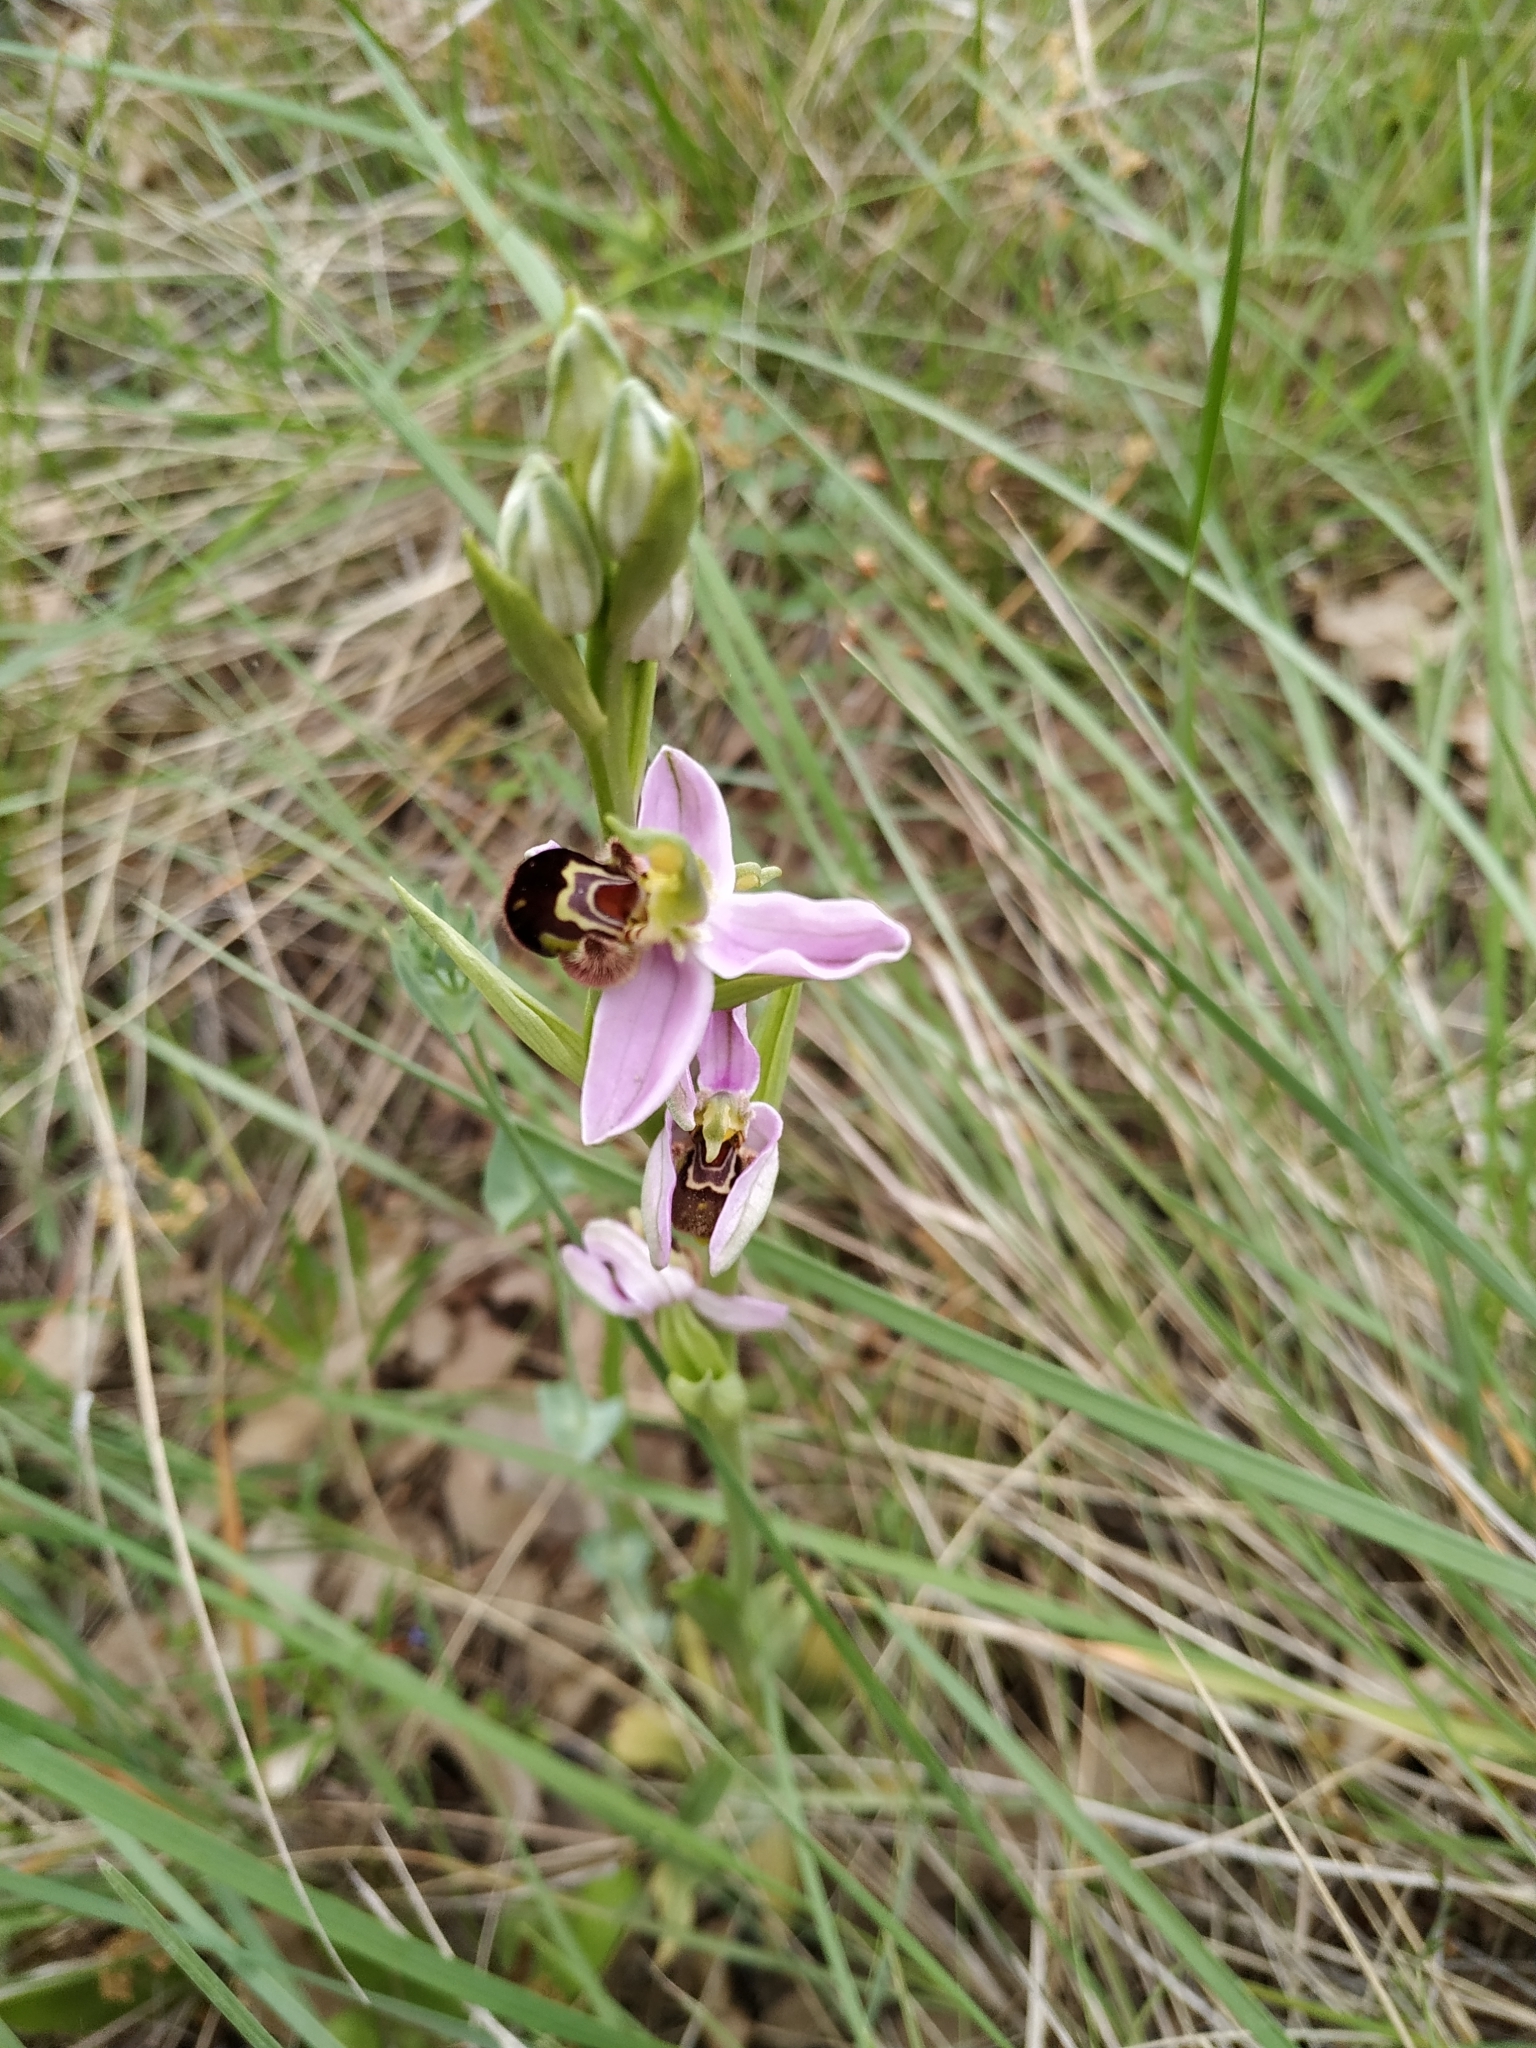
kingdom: Plantae
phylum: Tracheophyta
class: Liliopsida
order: Asparagales
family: Orchidaceae
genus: Ophrys
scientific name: Ophrys apifera
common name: Bee orchid
